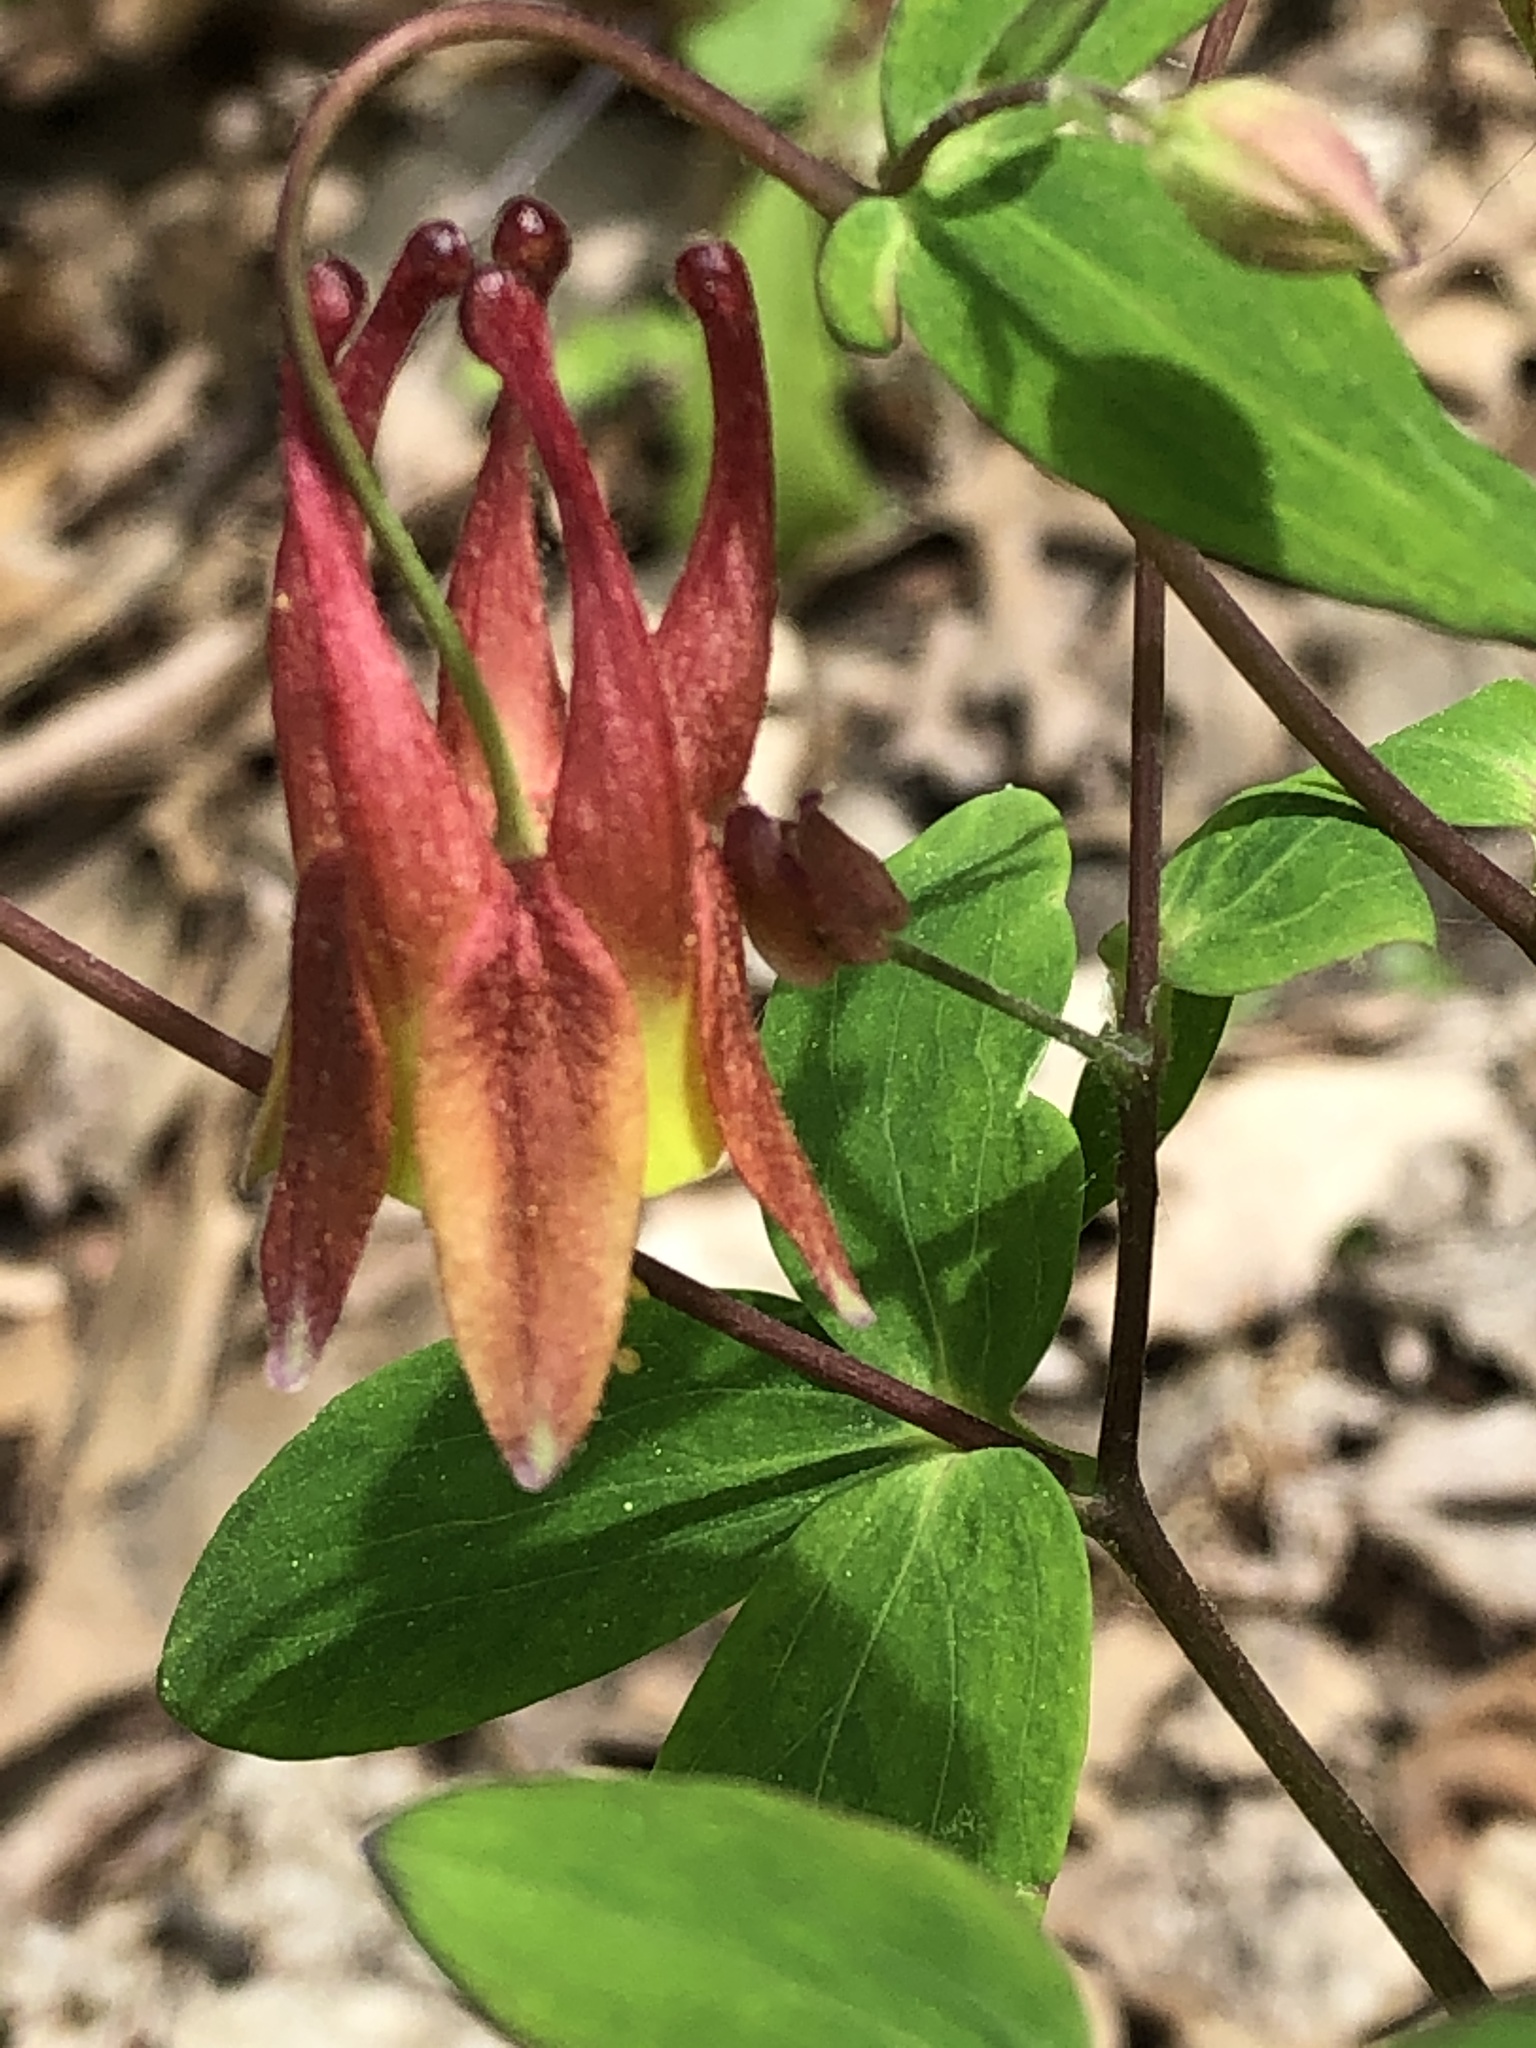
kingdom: Plantae
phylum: Tracheophyta
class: Magnoliopsida
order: Ranunculales
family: Ranunculaceae
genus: Aquilegia
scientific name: Aquilegia canadensis
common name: American columbine
